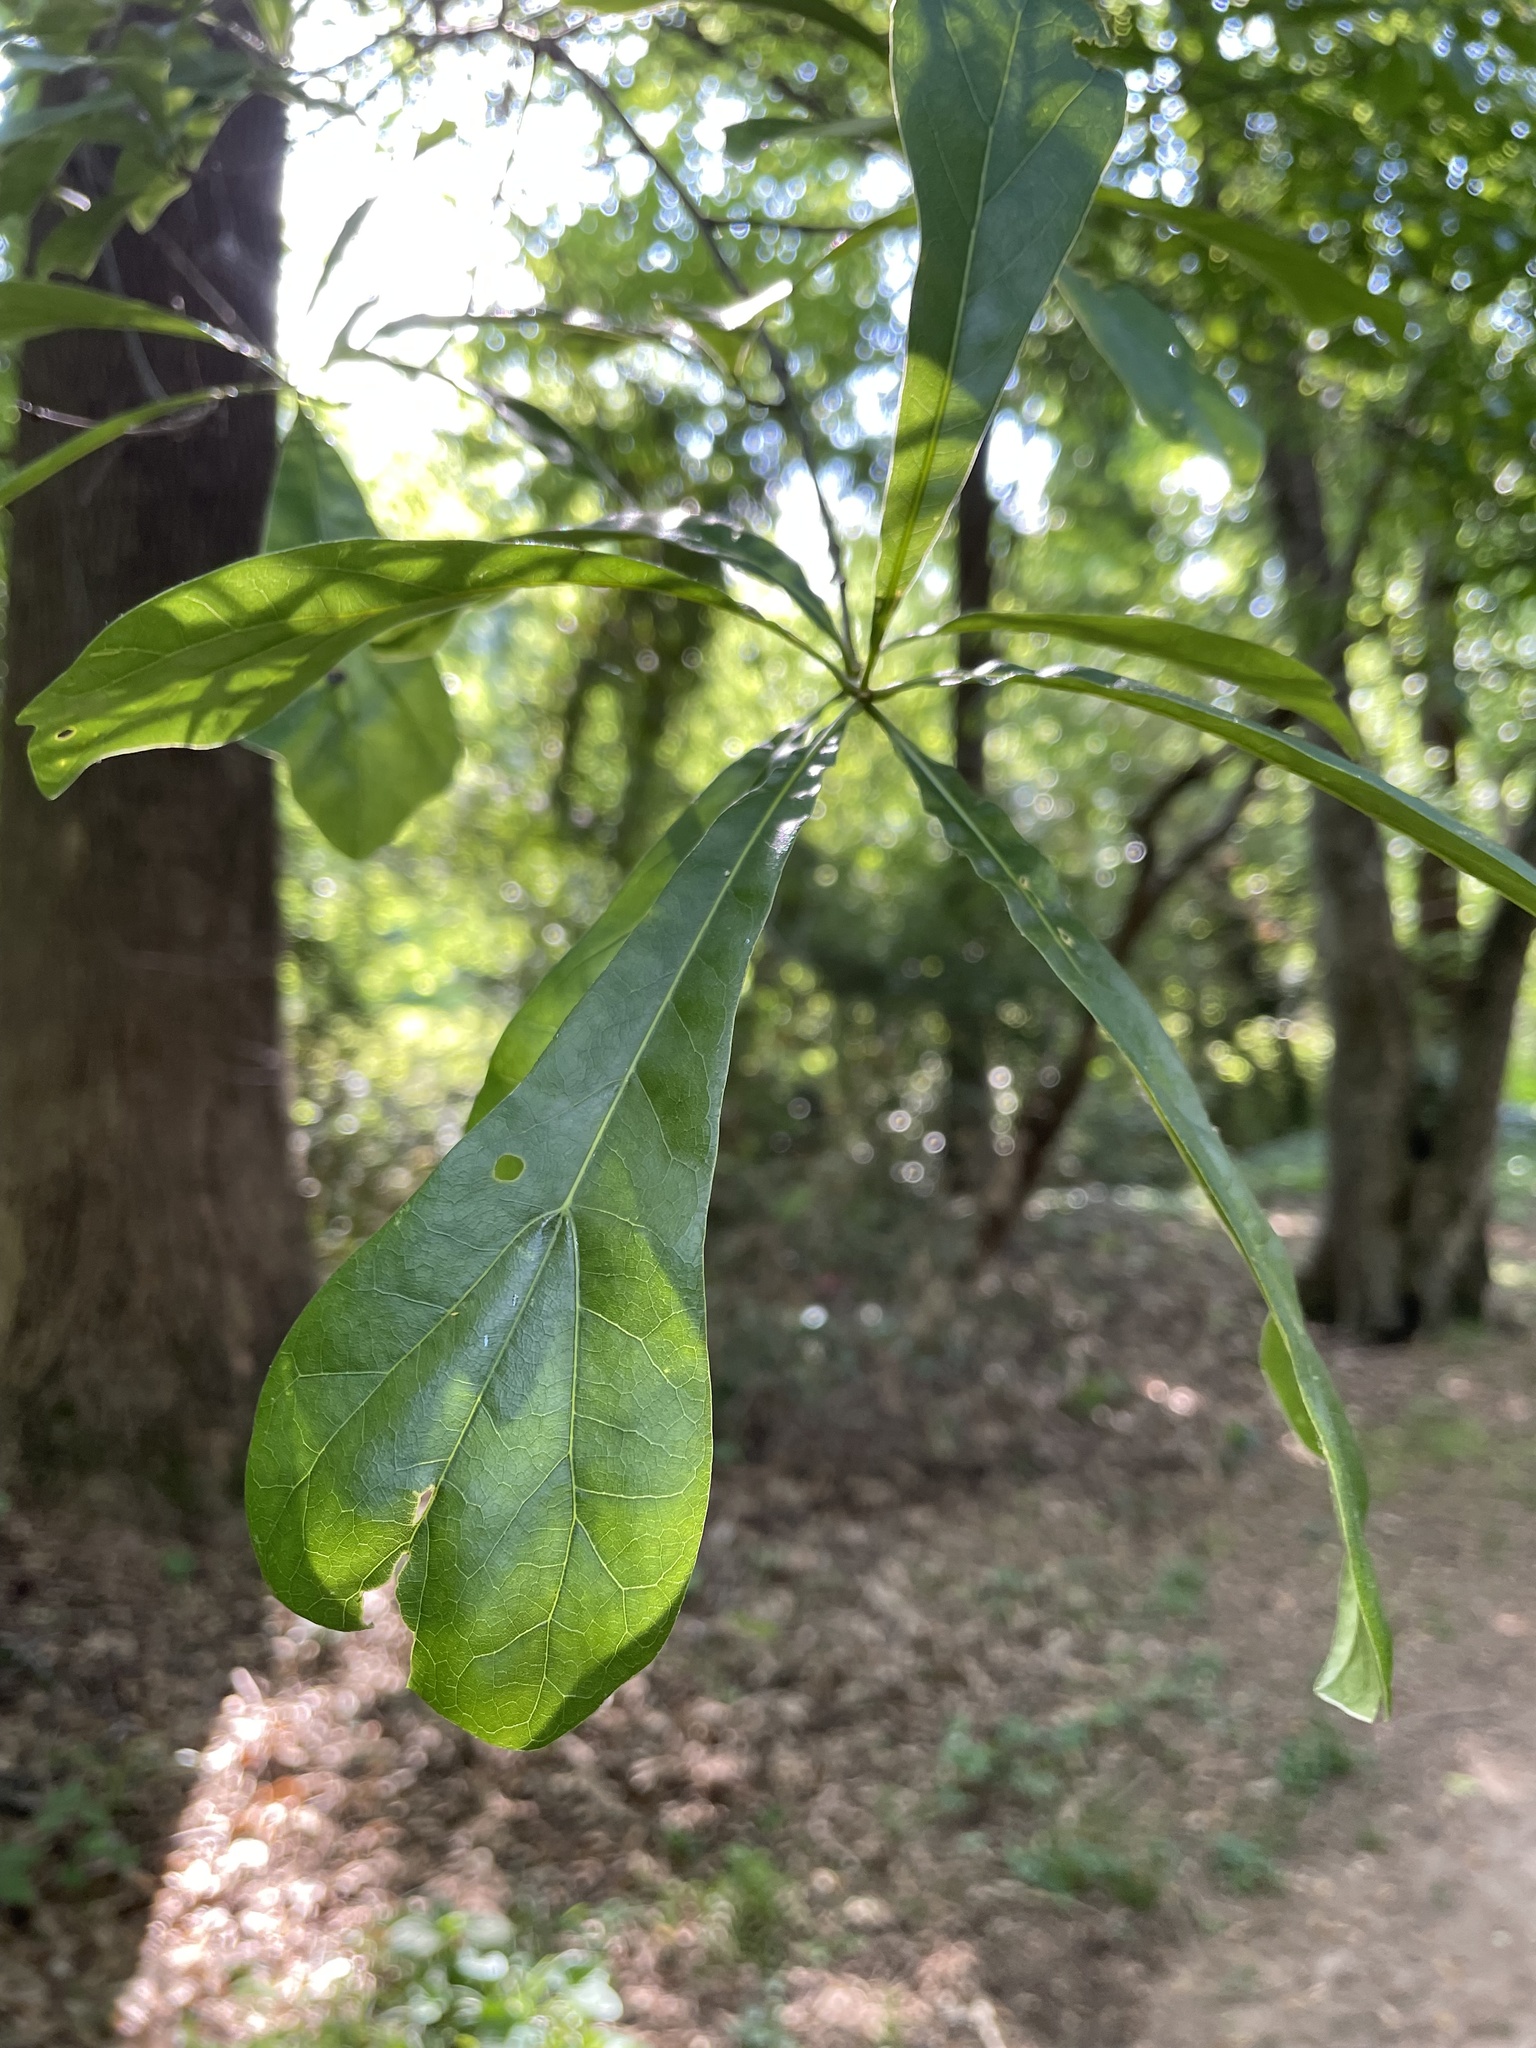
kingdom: Plantae
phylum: Tracheophyta
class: Magnoliopsida
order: Fagales
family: Fagaceae
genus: Quercus
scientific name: Quercus nigra
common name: Water oak
